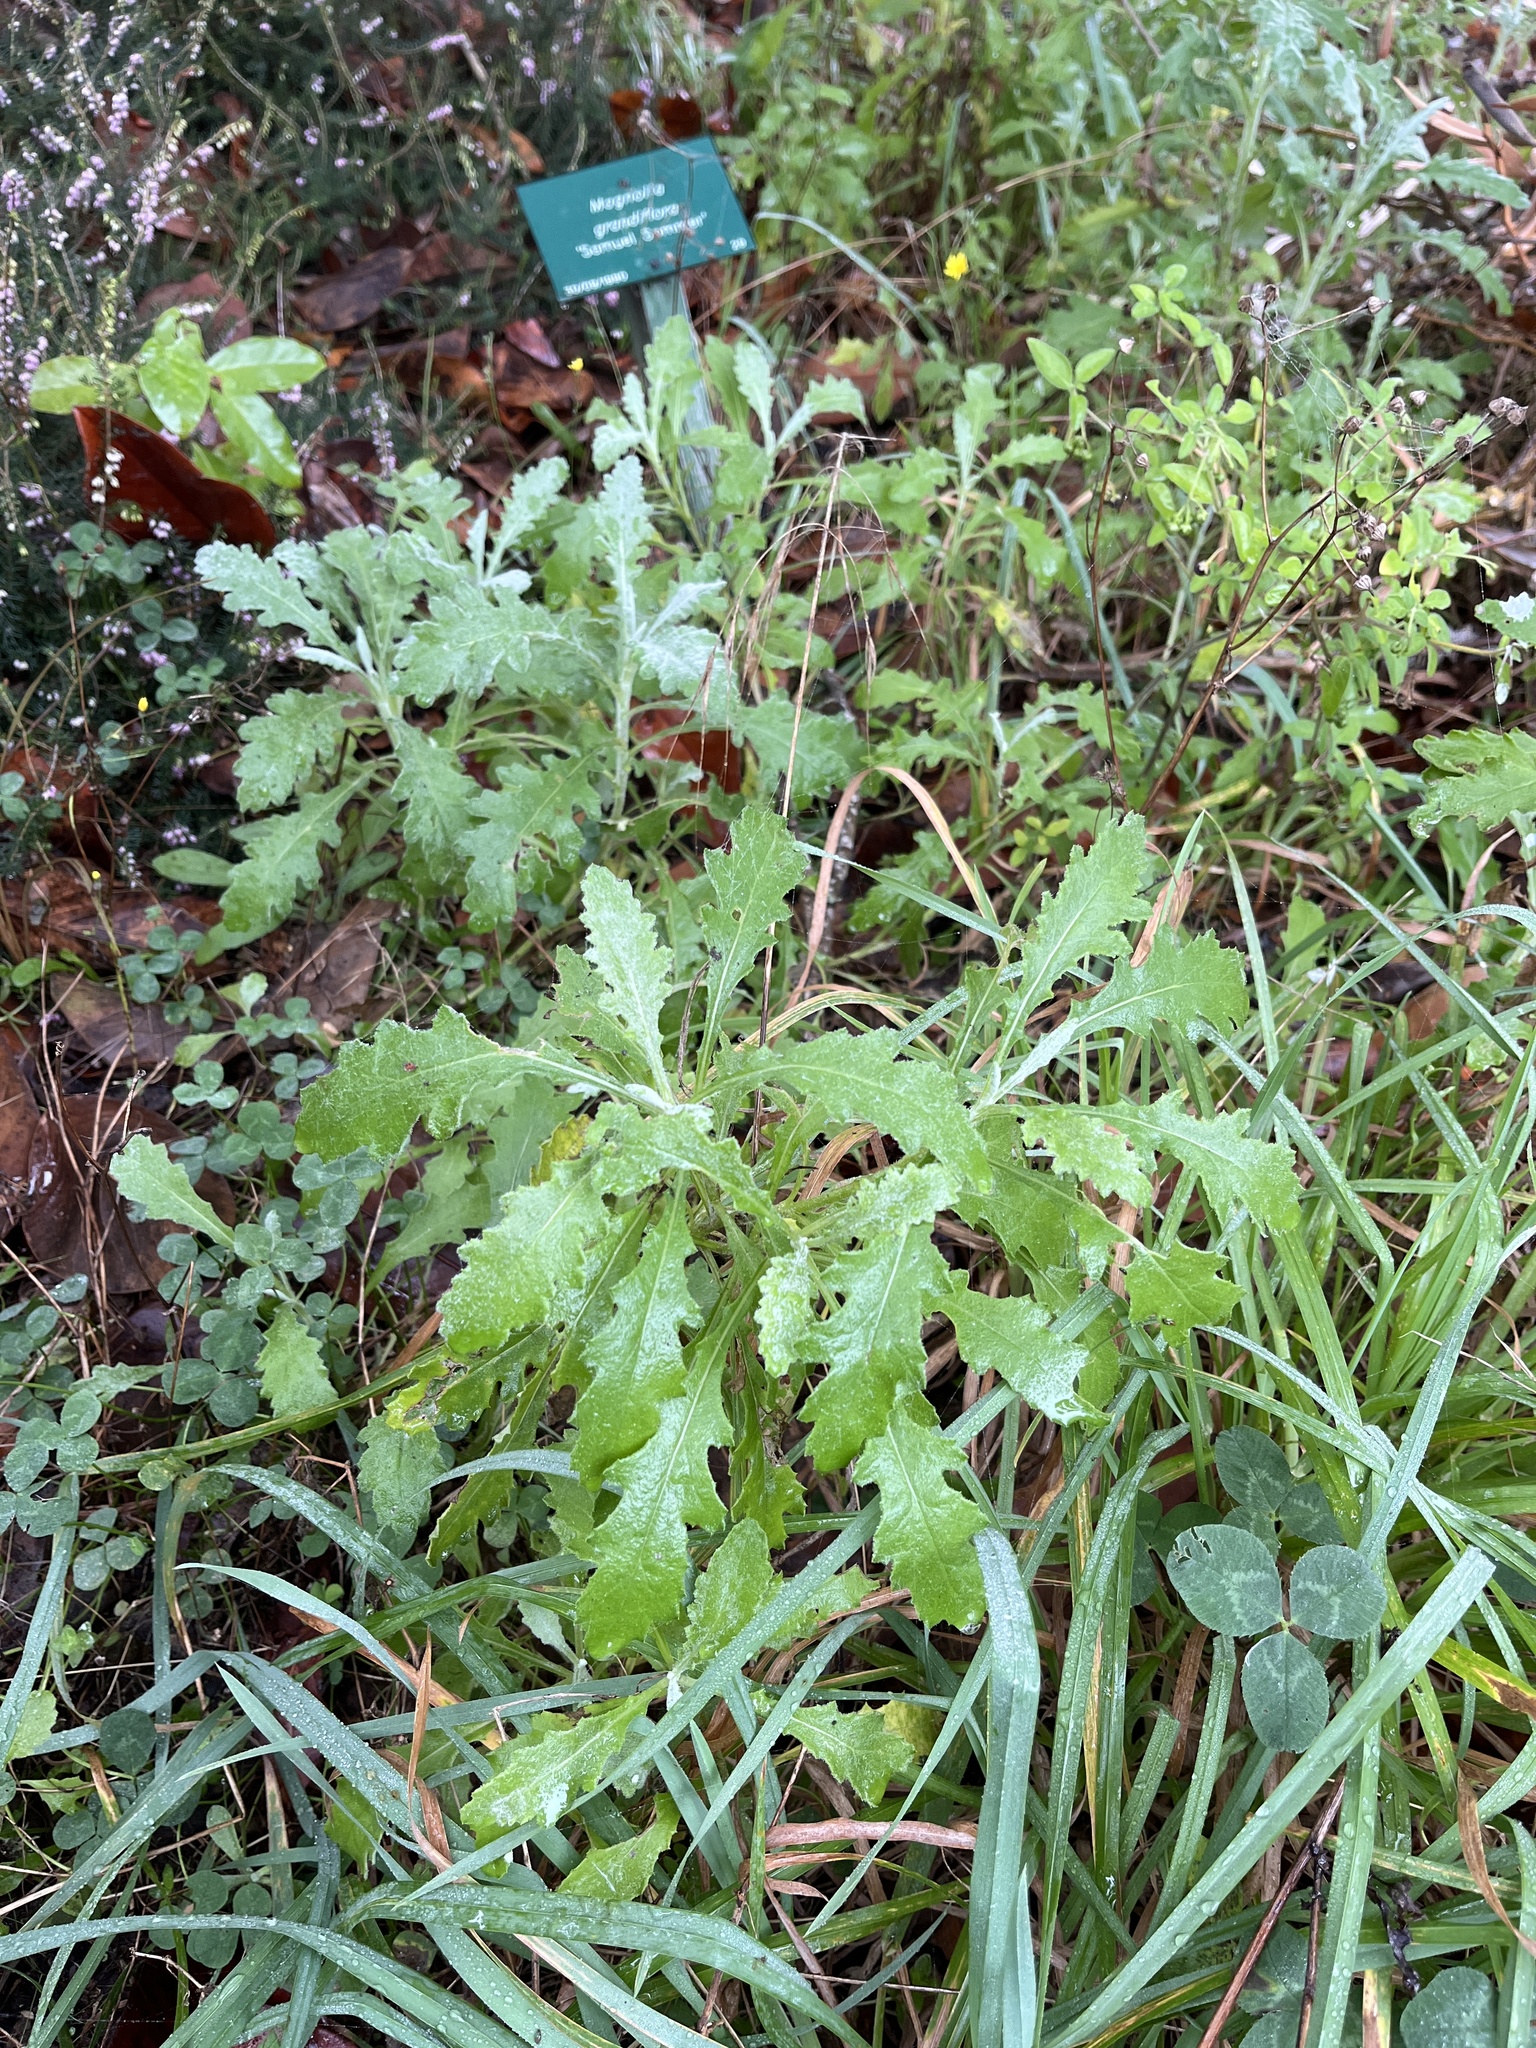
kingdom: Plantae
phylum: Tracheophyta
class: Magnoliopsida
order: Asterales
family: Asteraceae
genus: Senecio
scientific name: Senecio glomeratus
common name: Cutleaf burnweed
